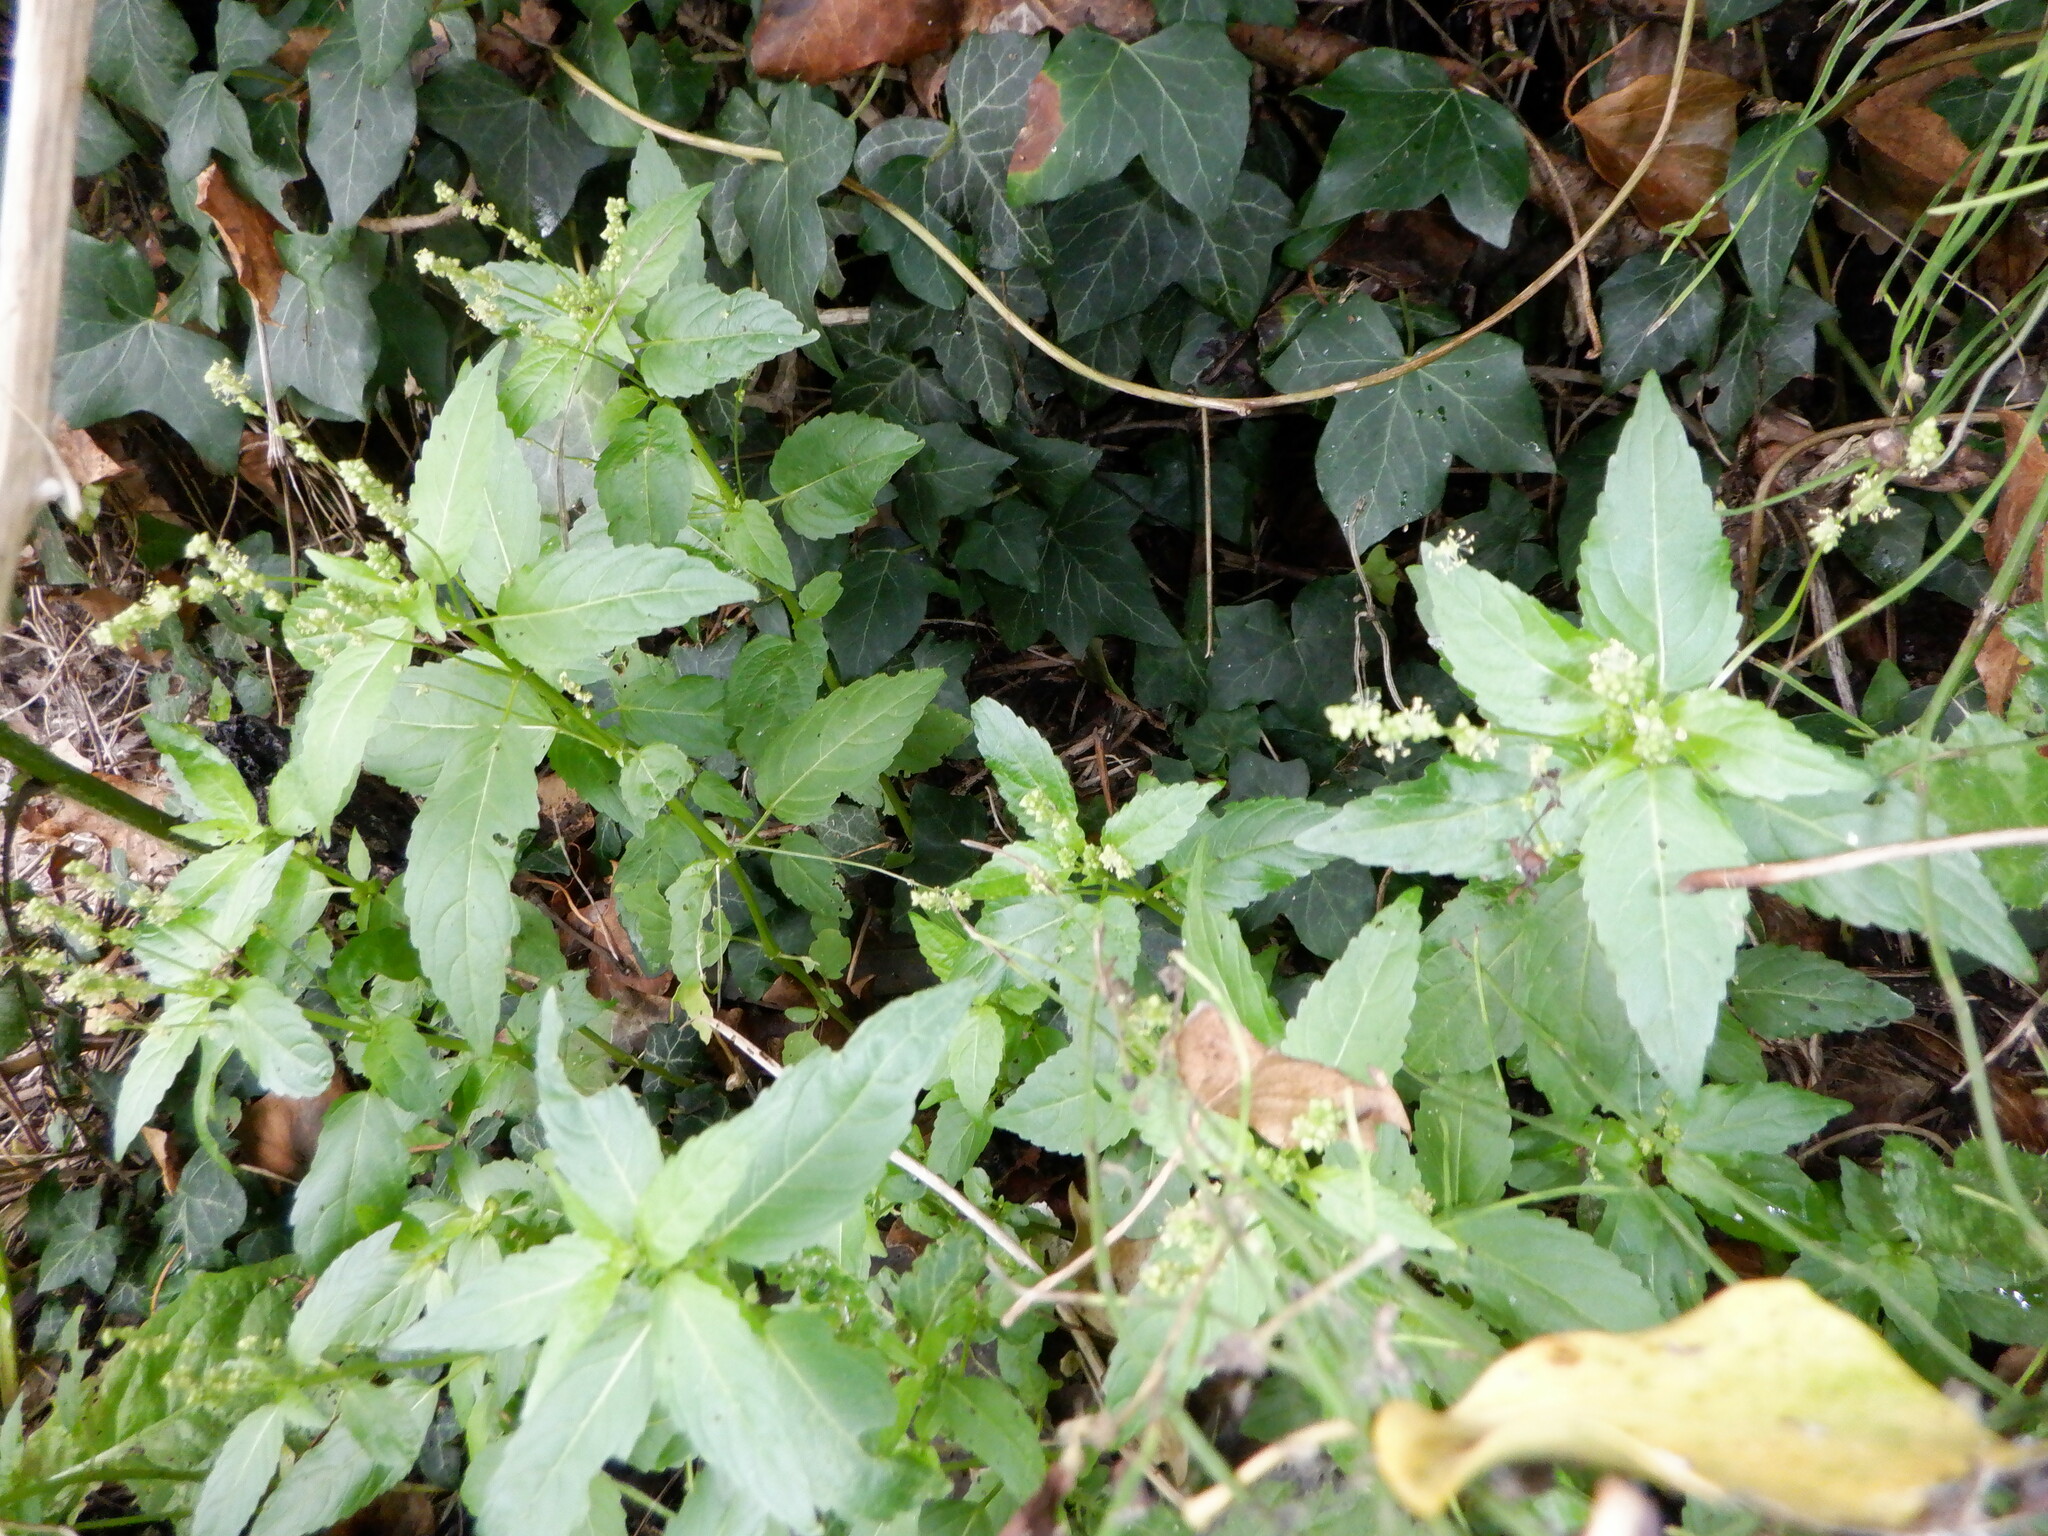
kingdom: Plantae
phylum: Tracheophyta
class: Magnoliopsida
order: Malpighiales
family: Euphorbiaceae
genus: Mercurialis
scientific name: Mercurialis annua
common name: Annual mercury
